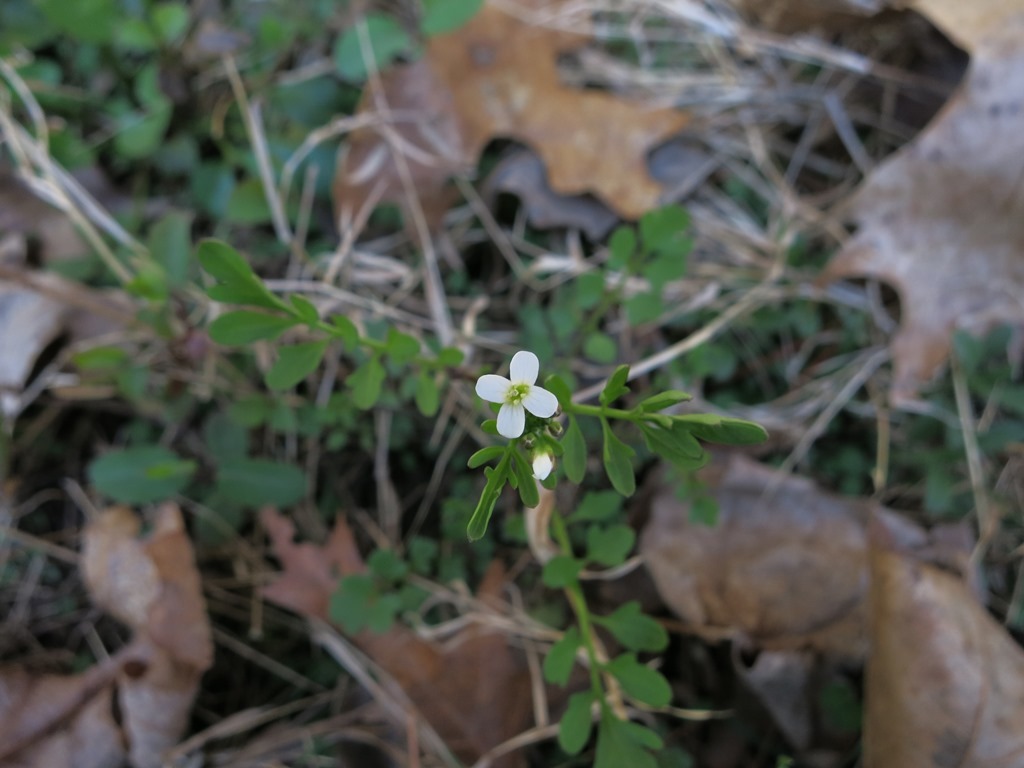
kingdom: Plantae
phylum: Tracheophyta
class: Magnoliopsida
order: Brassicales
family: Brassicaceae
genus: Cardamine
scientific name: Cardamine occulta
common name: Asian wavy bittercress
